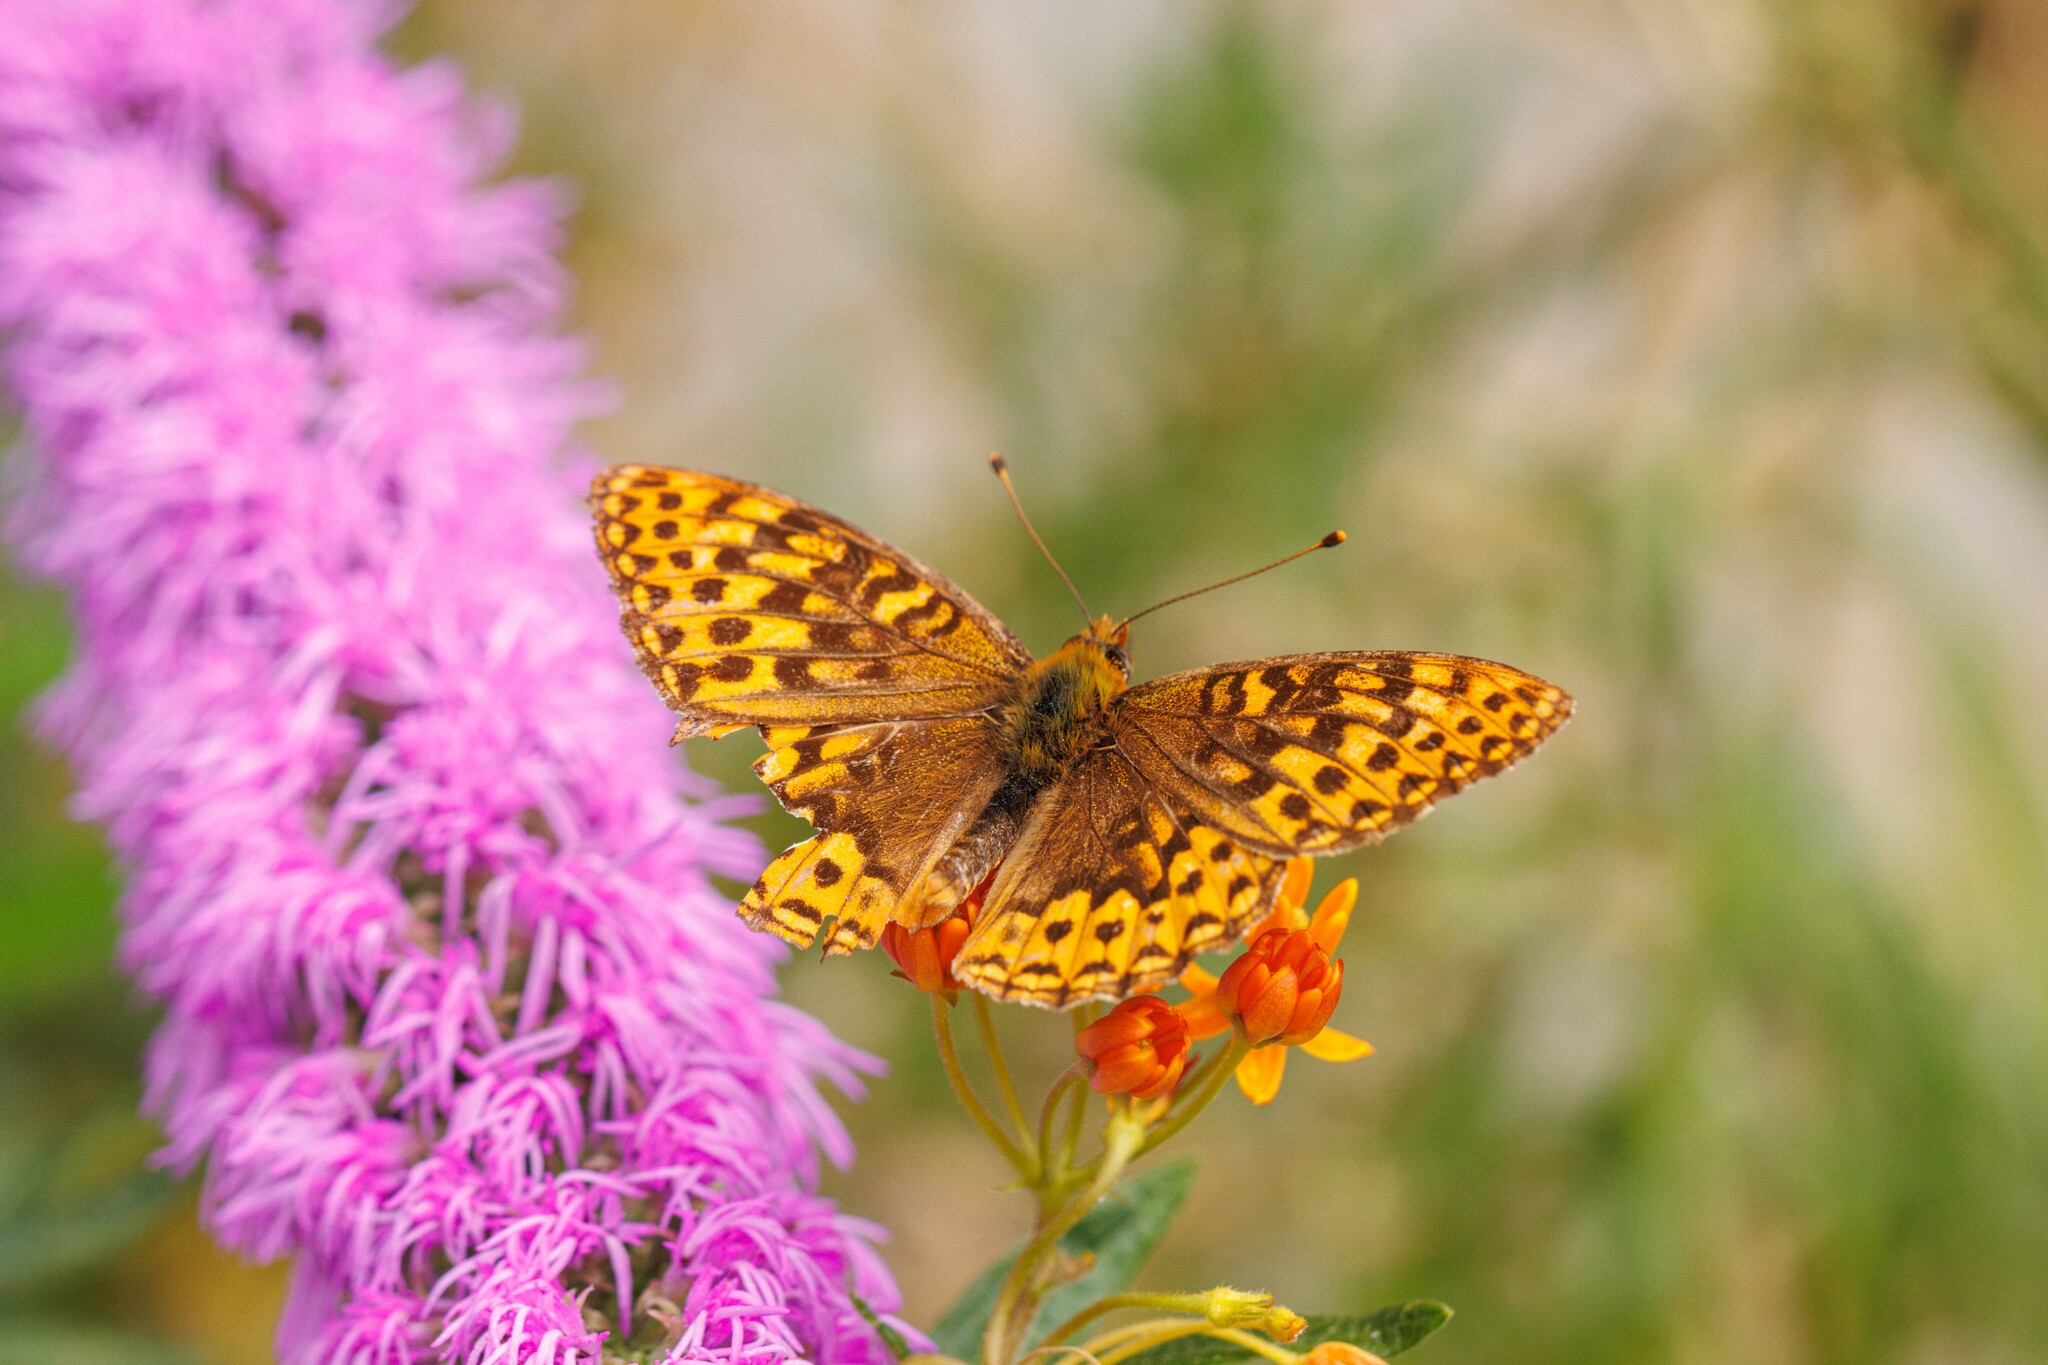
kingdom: Animalia
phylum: Arthropoda
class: Insecta
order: Lepidoptera
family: Nymphalidae
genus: Speyeria
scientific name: Speyeria hydaspe
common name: Hydaspe fritillary
